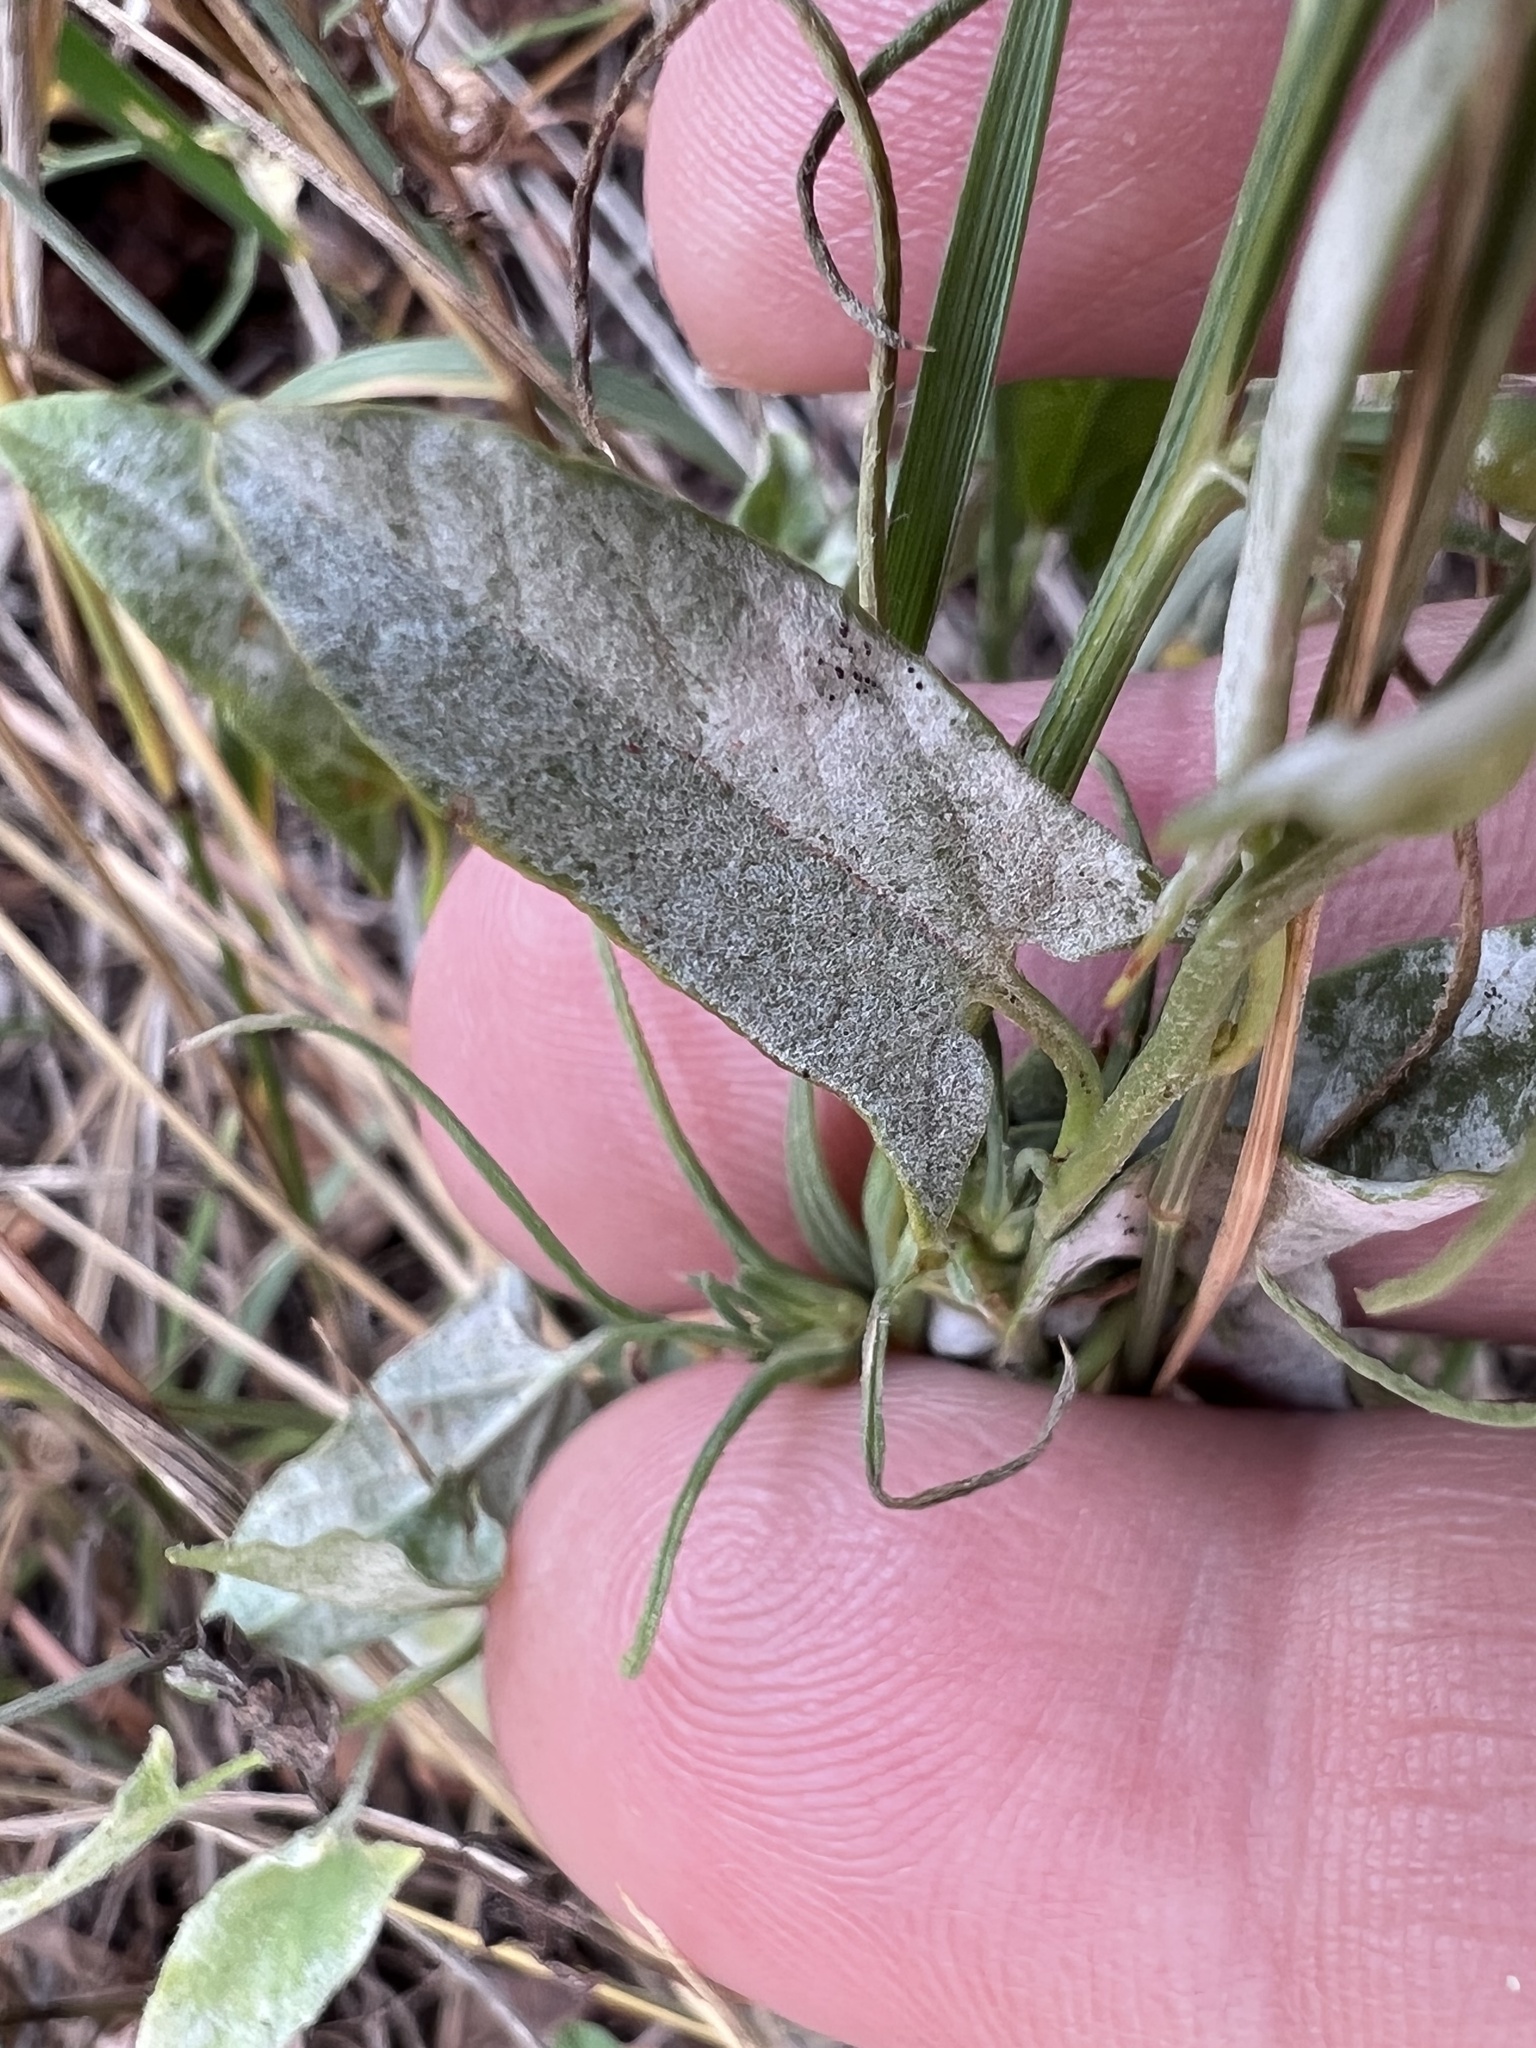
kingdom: Fungi
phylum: Ascomycota
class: Leotiomycetes
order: Helotiales
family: Erysiphaceae
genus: Erysiphe
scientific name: Erysiphe convolvuli
